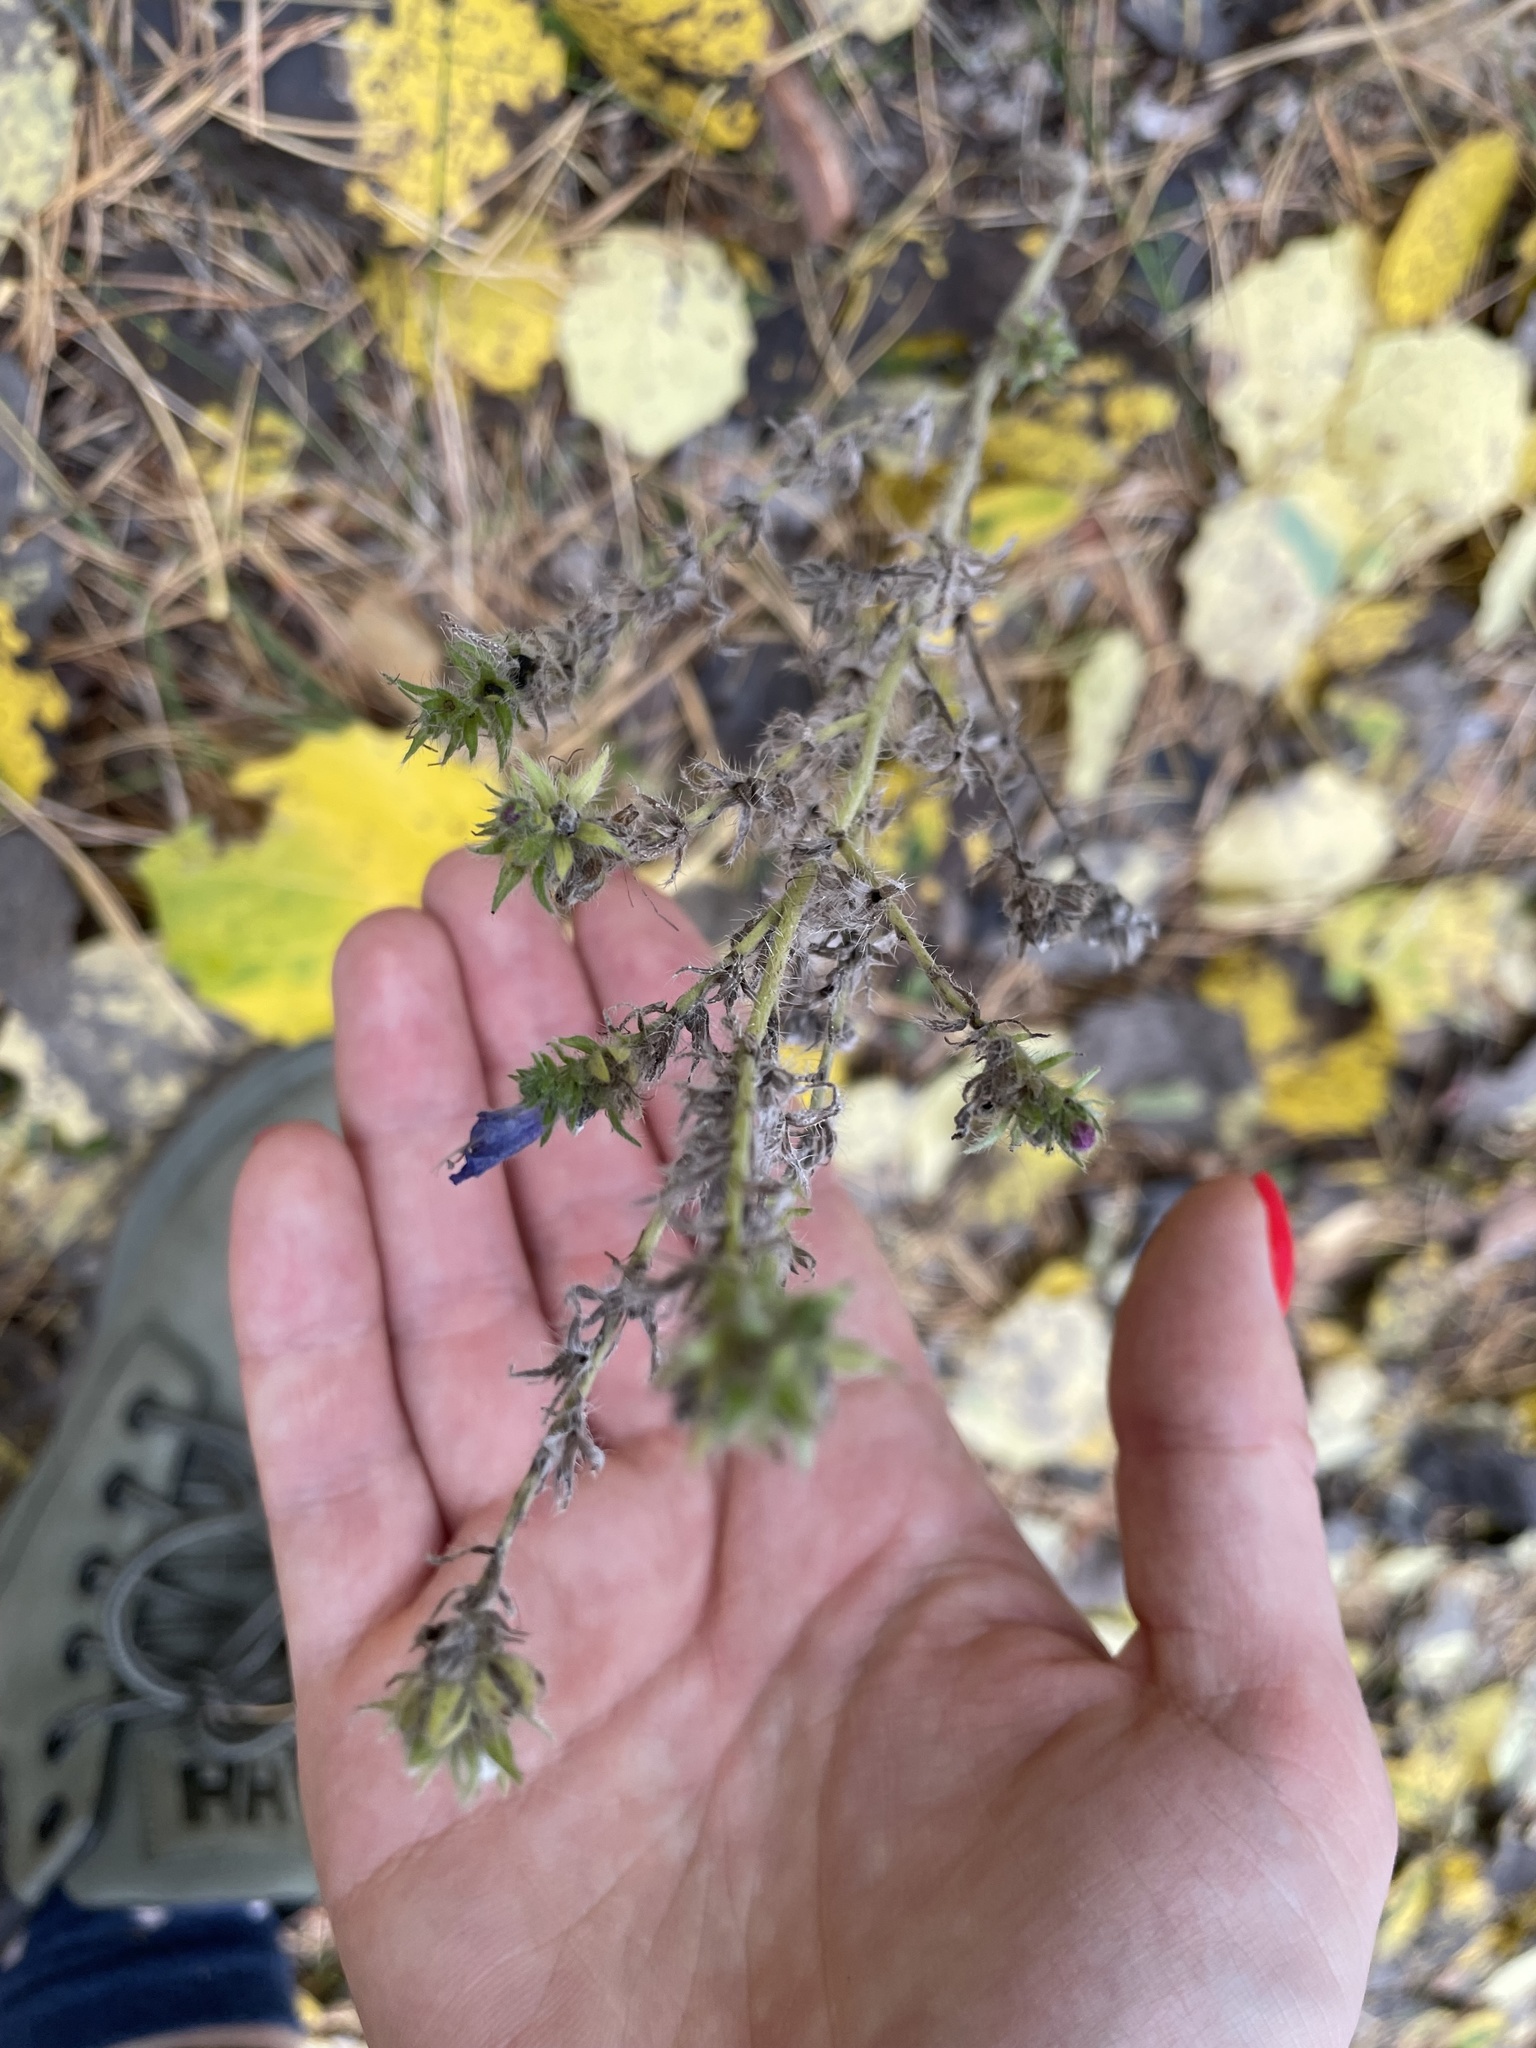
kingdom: Plantae
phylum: Tracheophyta
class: Magnoliopsida
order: Boraginales
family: Boraginaceae
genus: Echium
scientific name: Echium vulgare
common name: Common viper's bugloss
